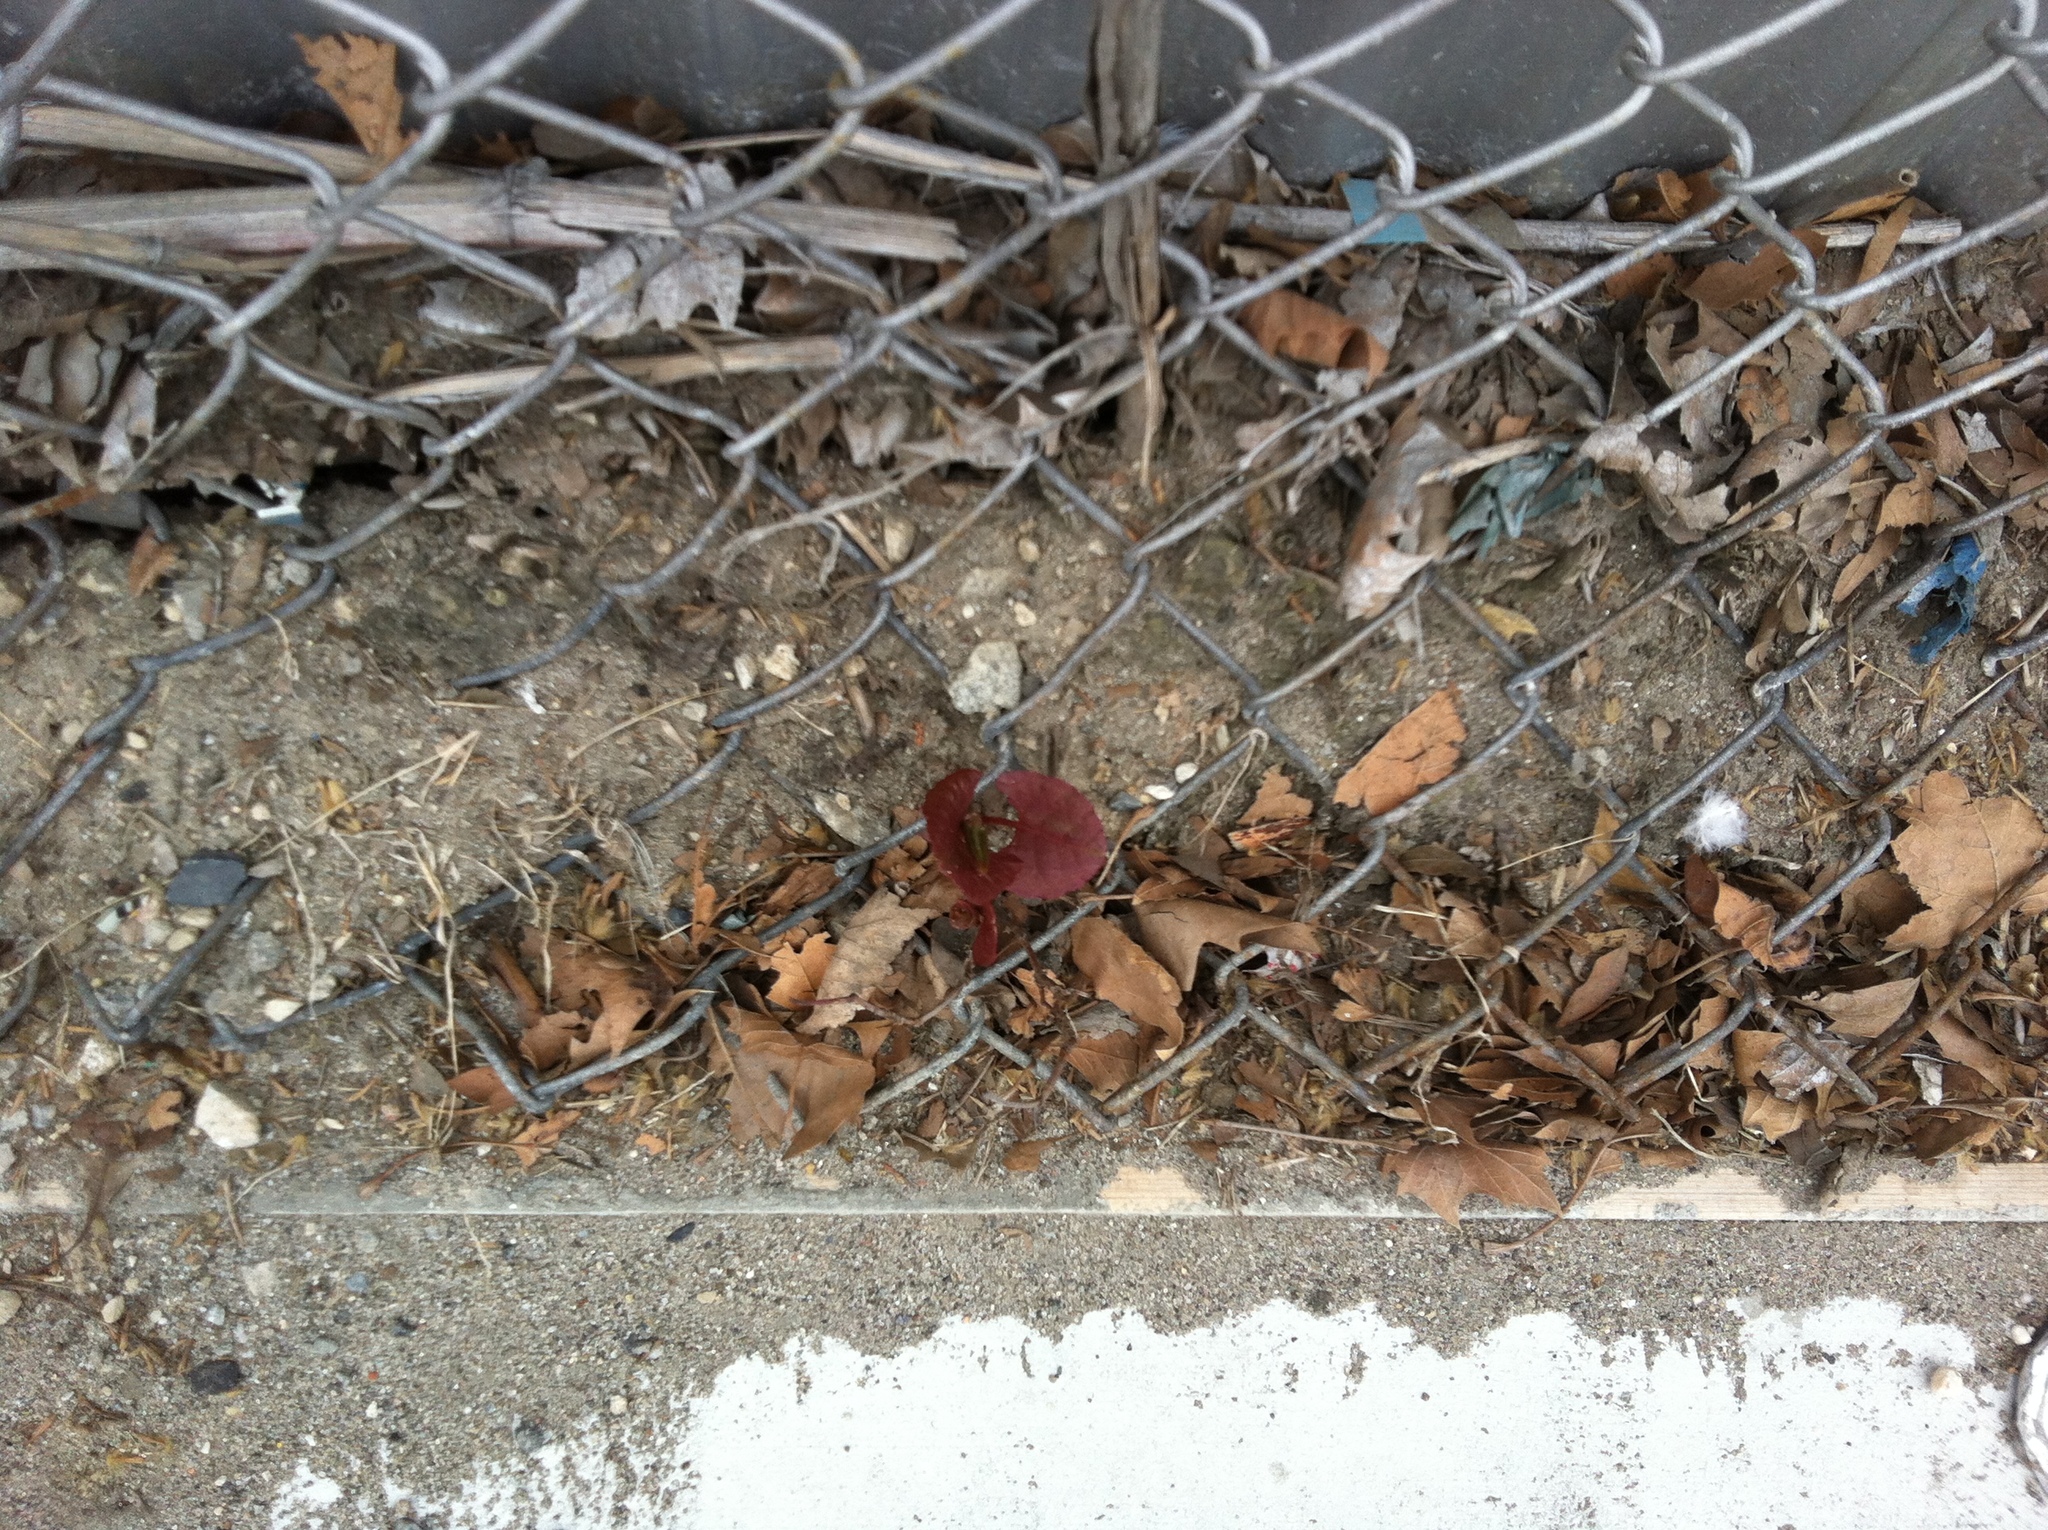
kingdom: Plantae
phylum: Tracheophyta
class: Magnoliopsida
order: Caryophyllales
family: Polygonaceae
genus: Reynoutria
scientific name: Reynoutria japonica
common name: Japanese knotweed
